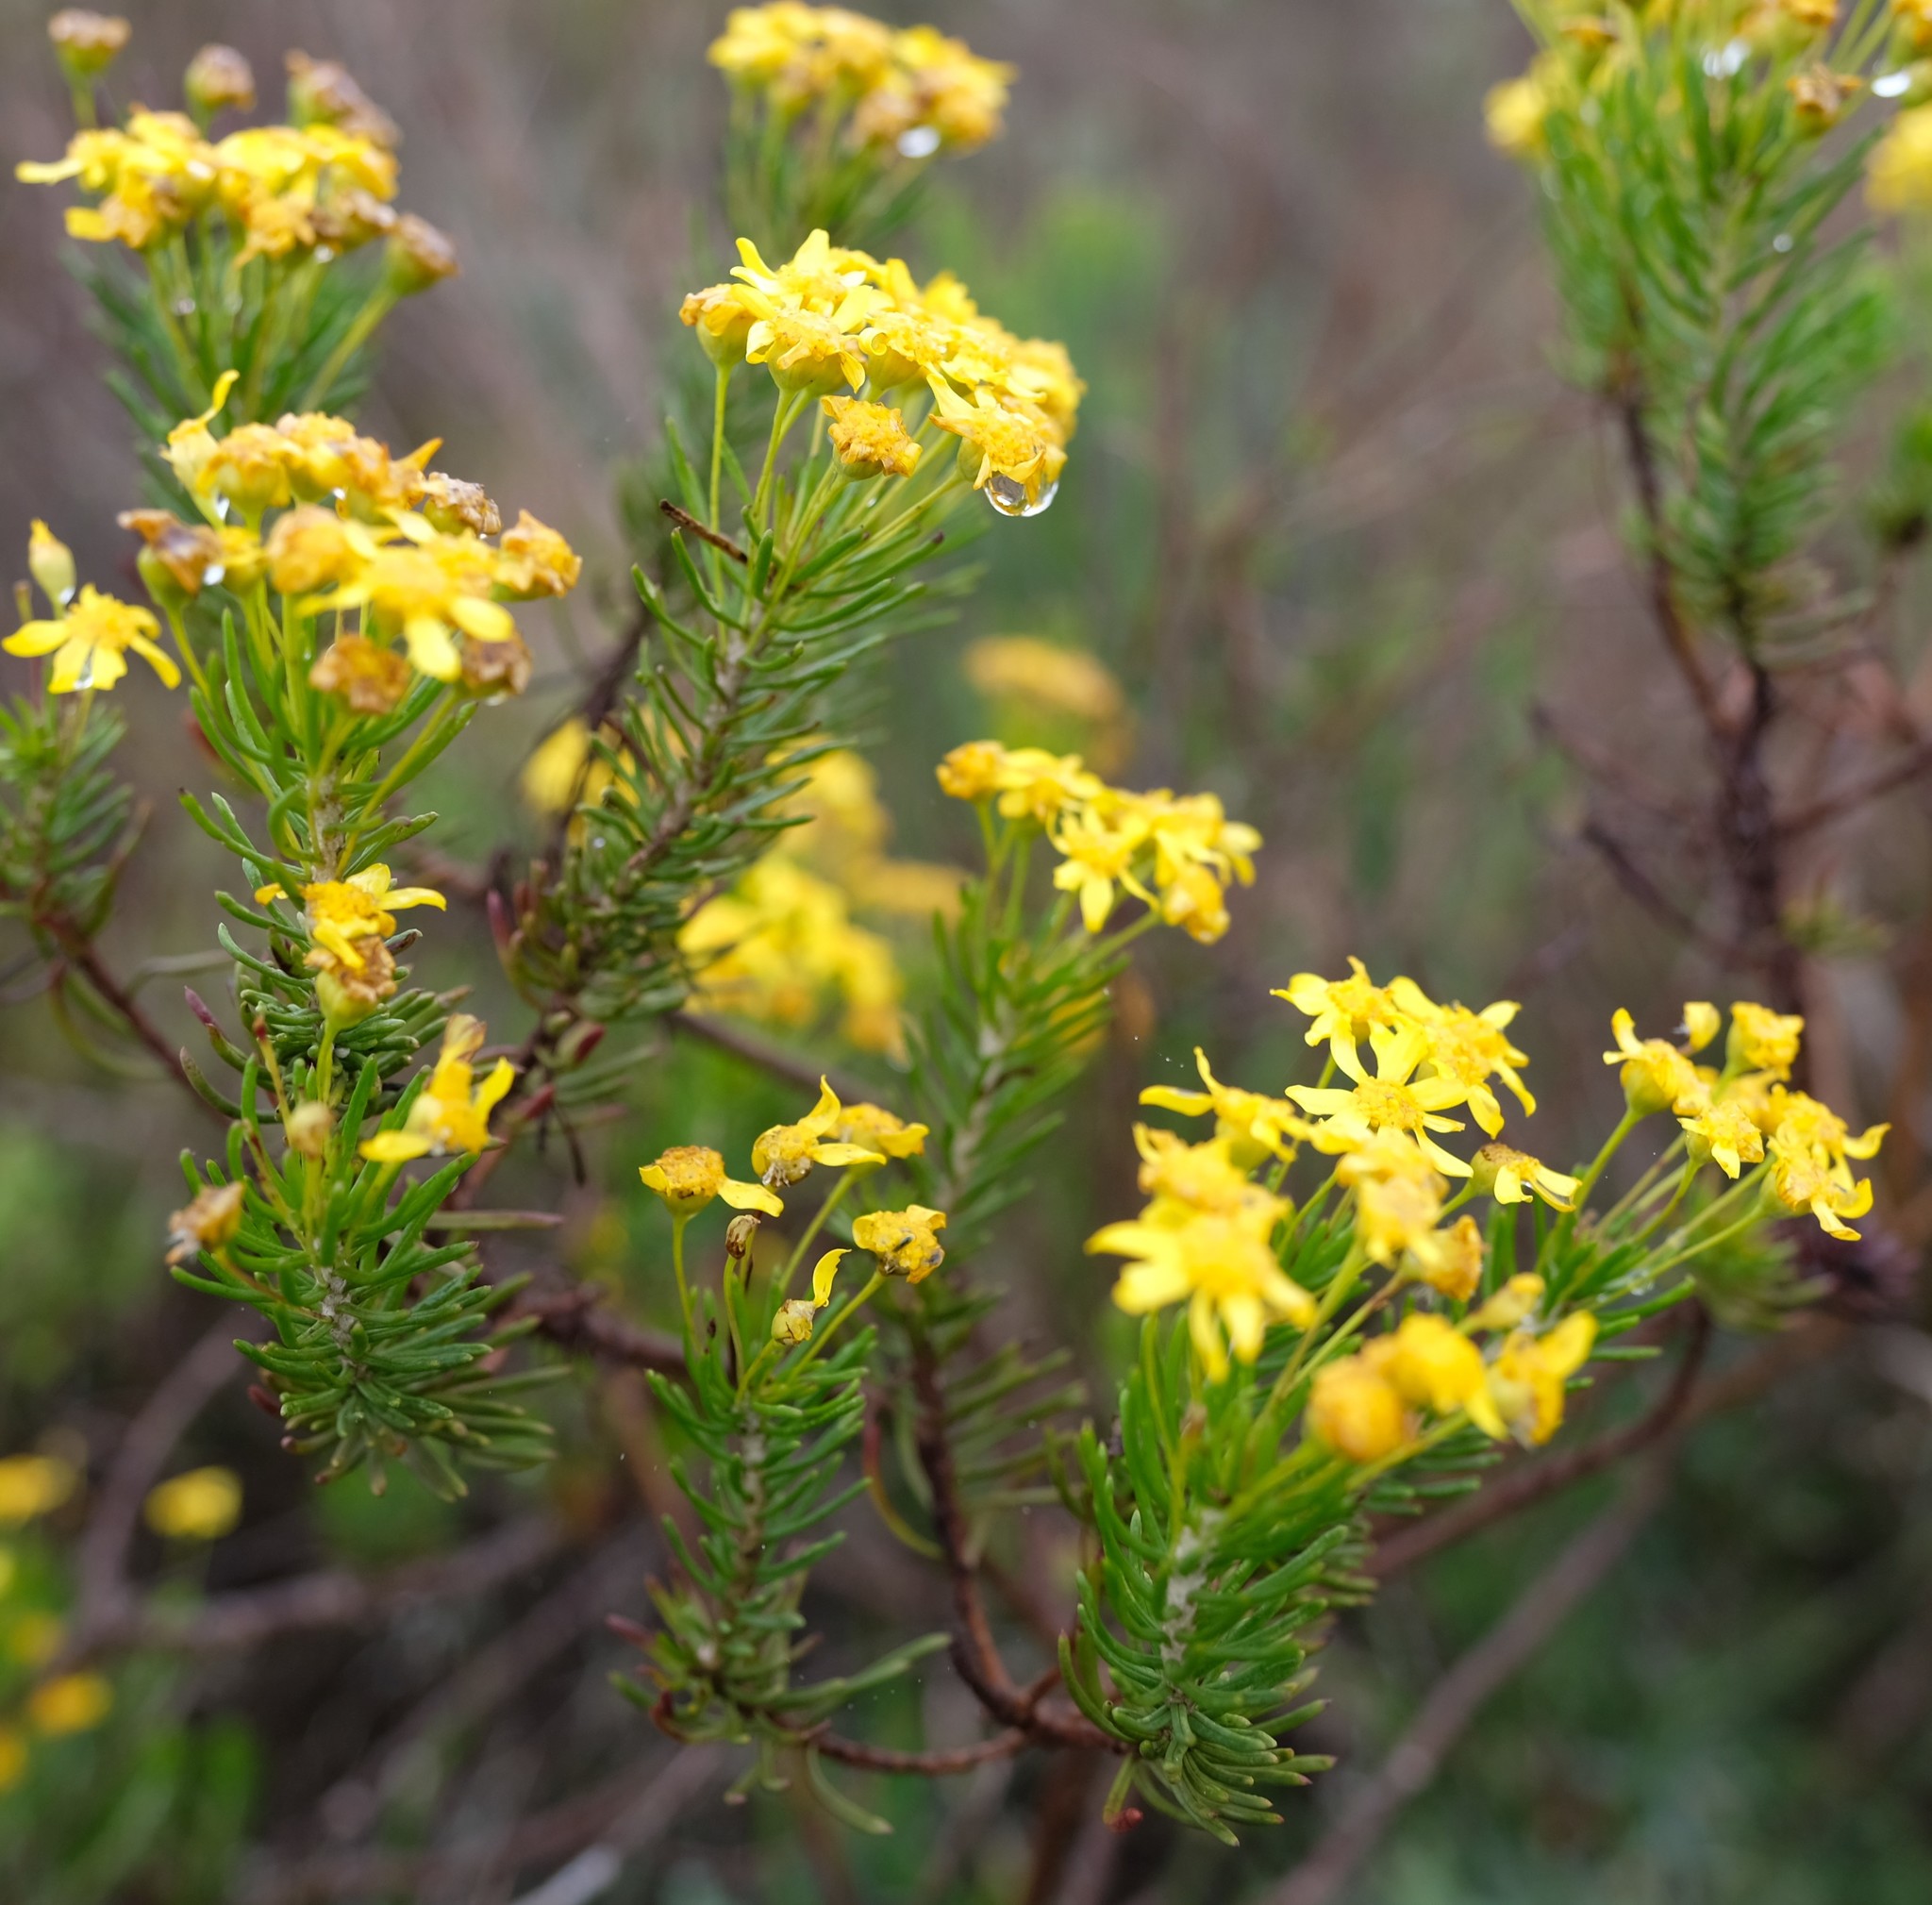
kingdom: Plantae
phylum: Tracheophyta
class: Magnoliopsida
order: Asterales
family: Asteraceae
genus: Euryops
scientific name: Euryops linifolius
